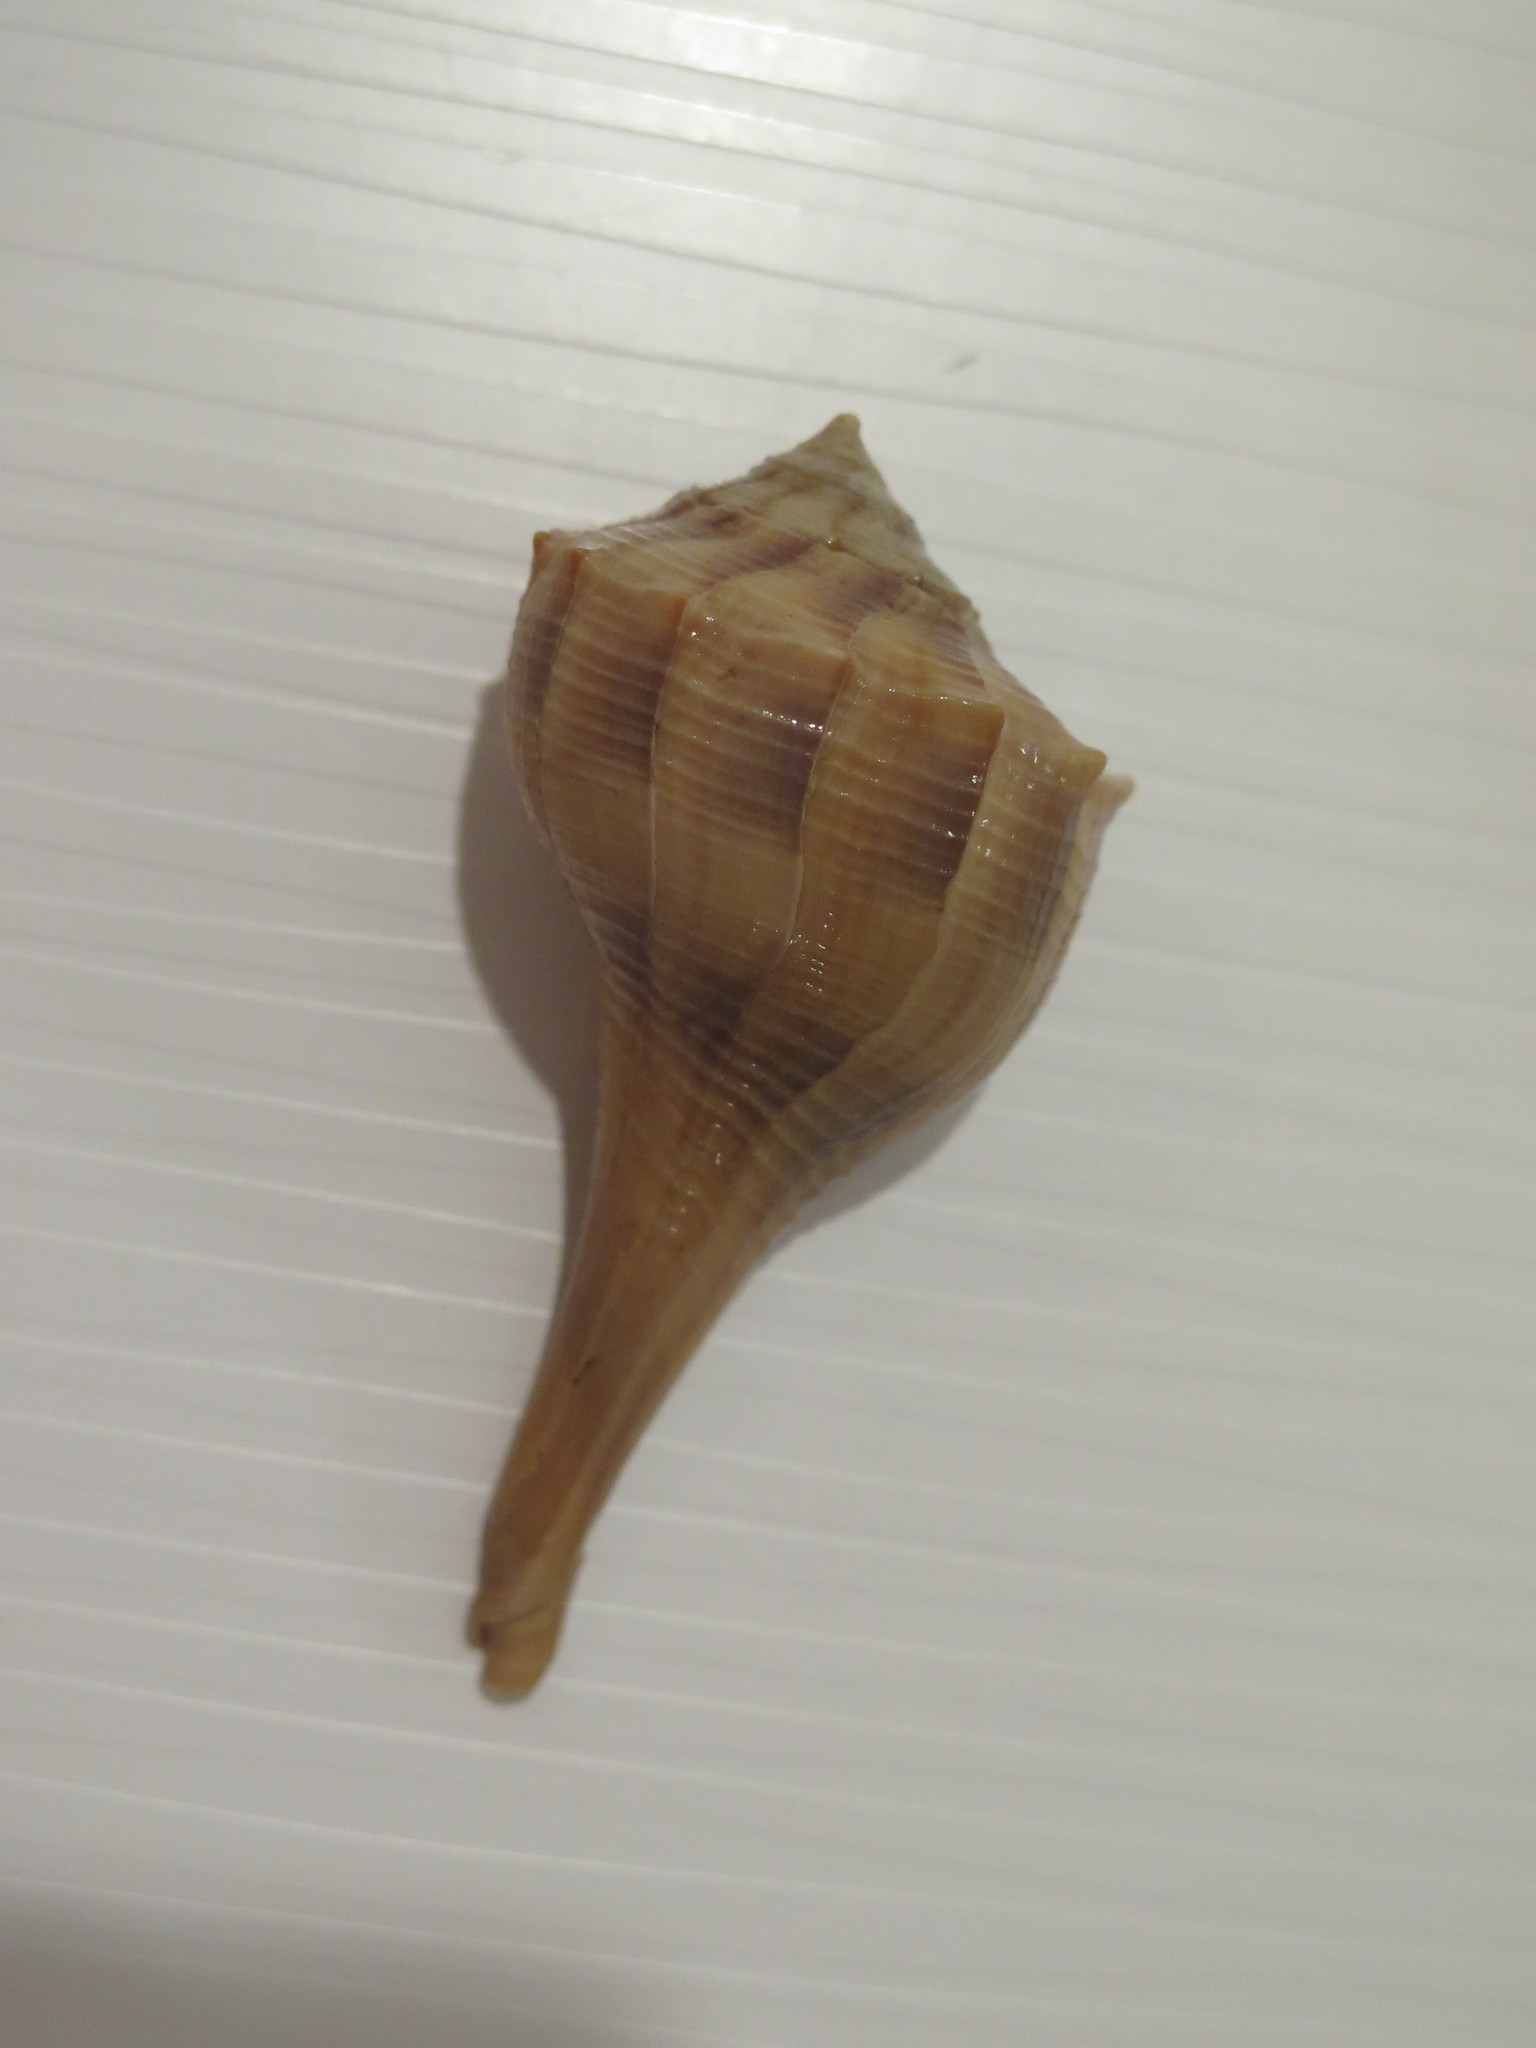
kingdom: Animalia
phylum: Mollusca
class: Gastropoda
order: Neogastropoda
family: Busyconidae
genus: Sinistrofulgur
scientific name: Sinistrofulgur sinistrum
